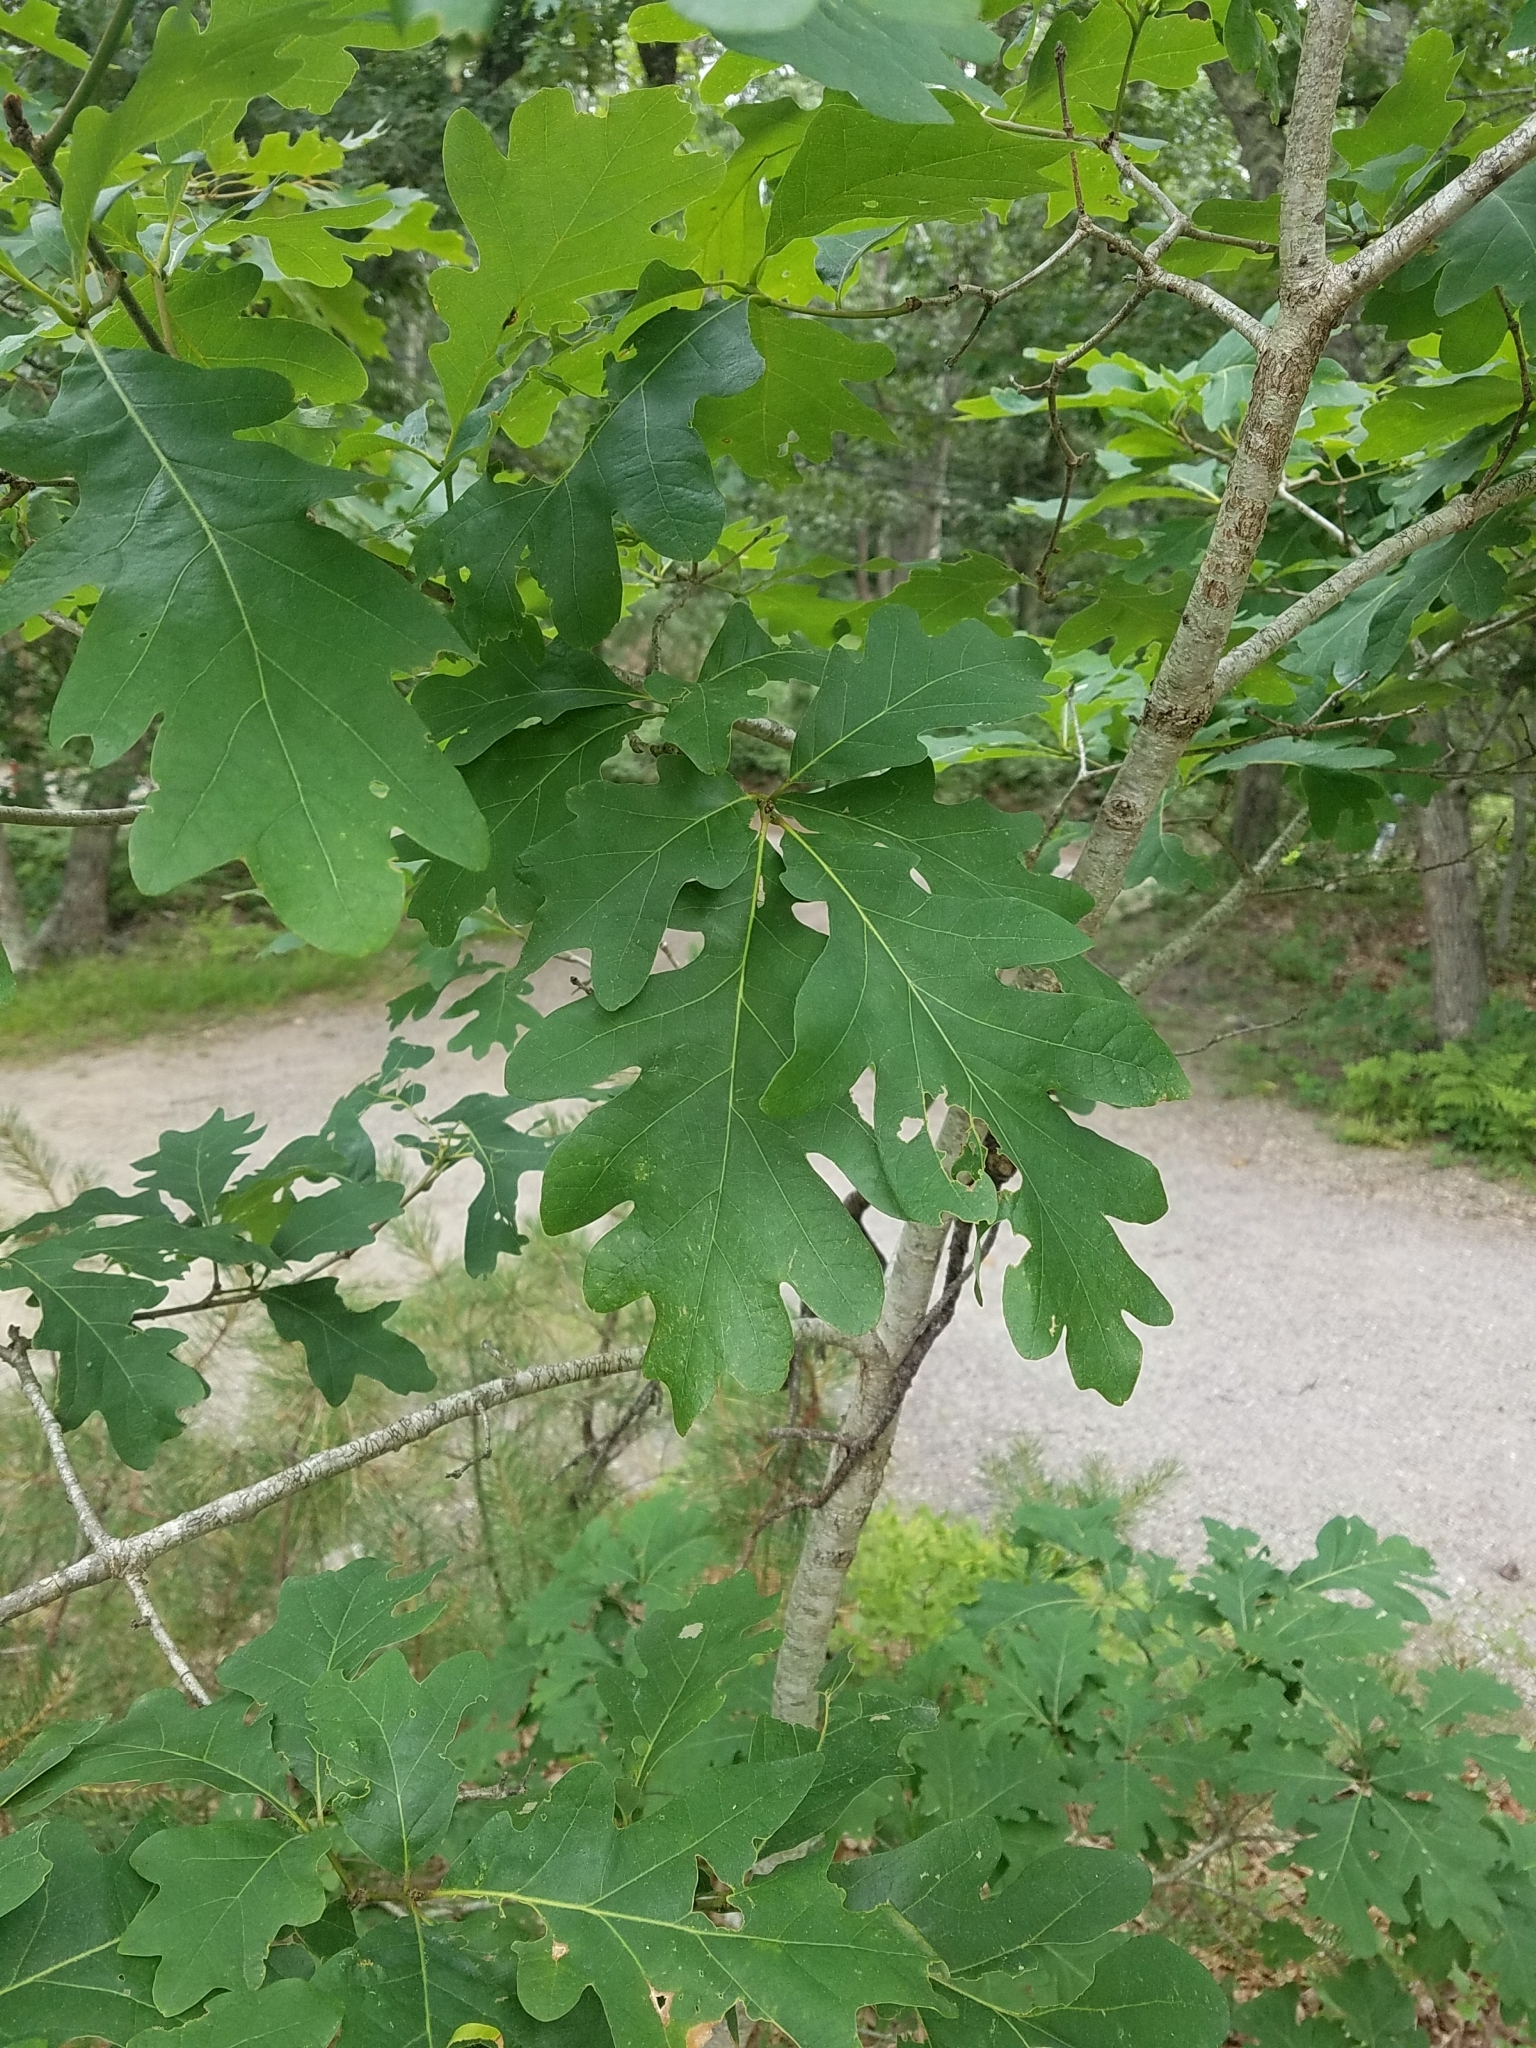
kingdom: Plantae
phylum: Tracheophyta
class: Magnoliopsida
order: Fagales
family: Fagaceae
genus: Quercus
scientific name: Quercus alba
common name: White oak
